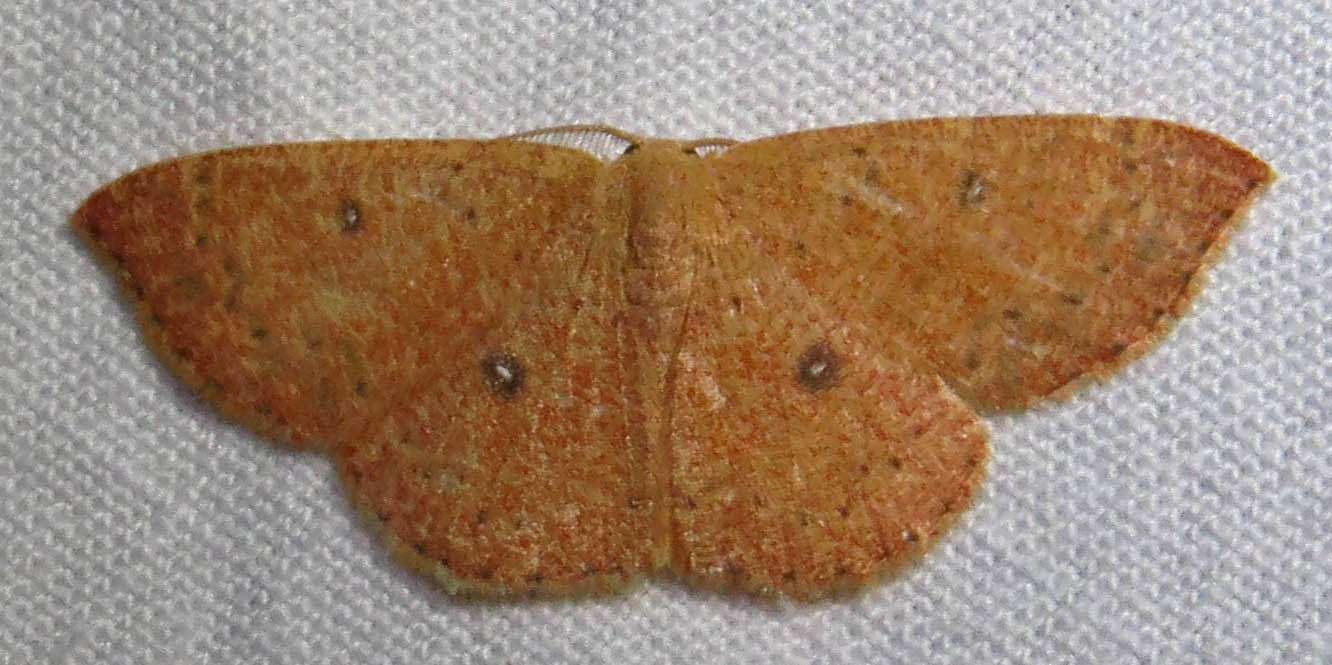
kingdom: Animalia
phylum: Arthropoda
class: Insecta
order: Lepidoptera
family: Geometridae
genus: Cyclophora
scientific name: Cyclophora packardi
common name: Packard's wave
